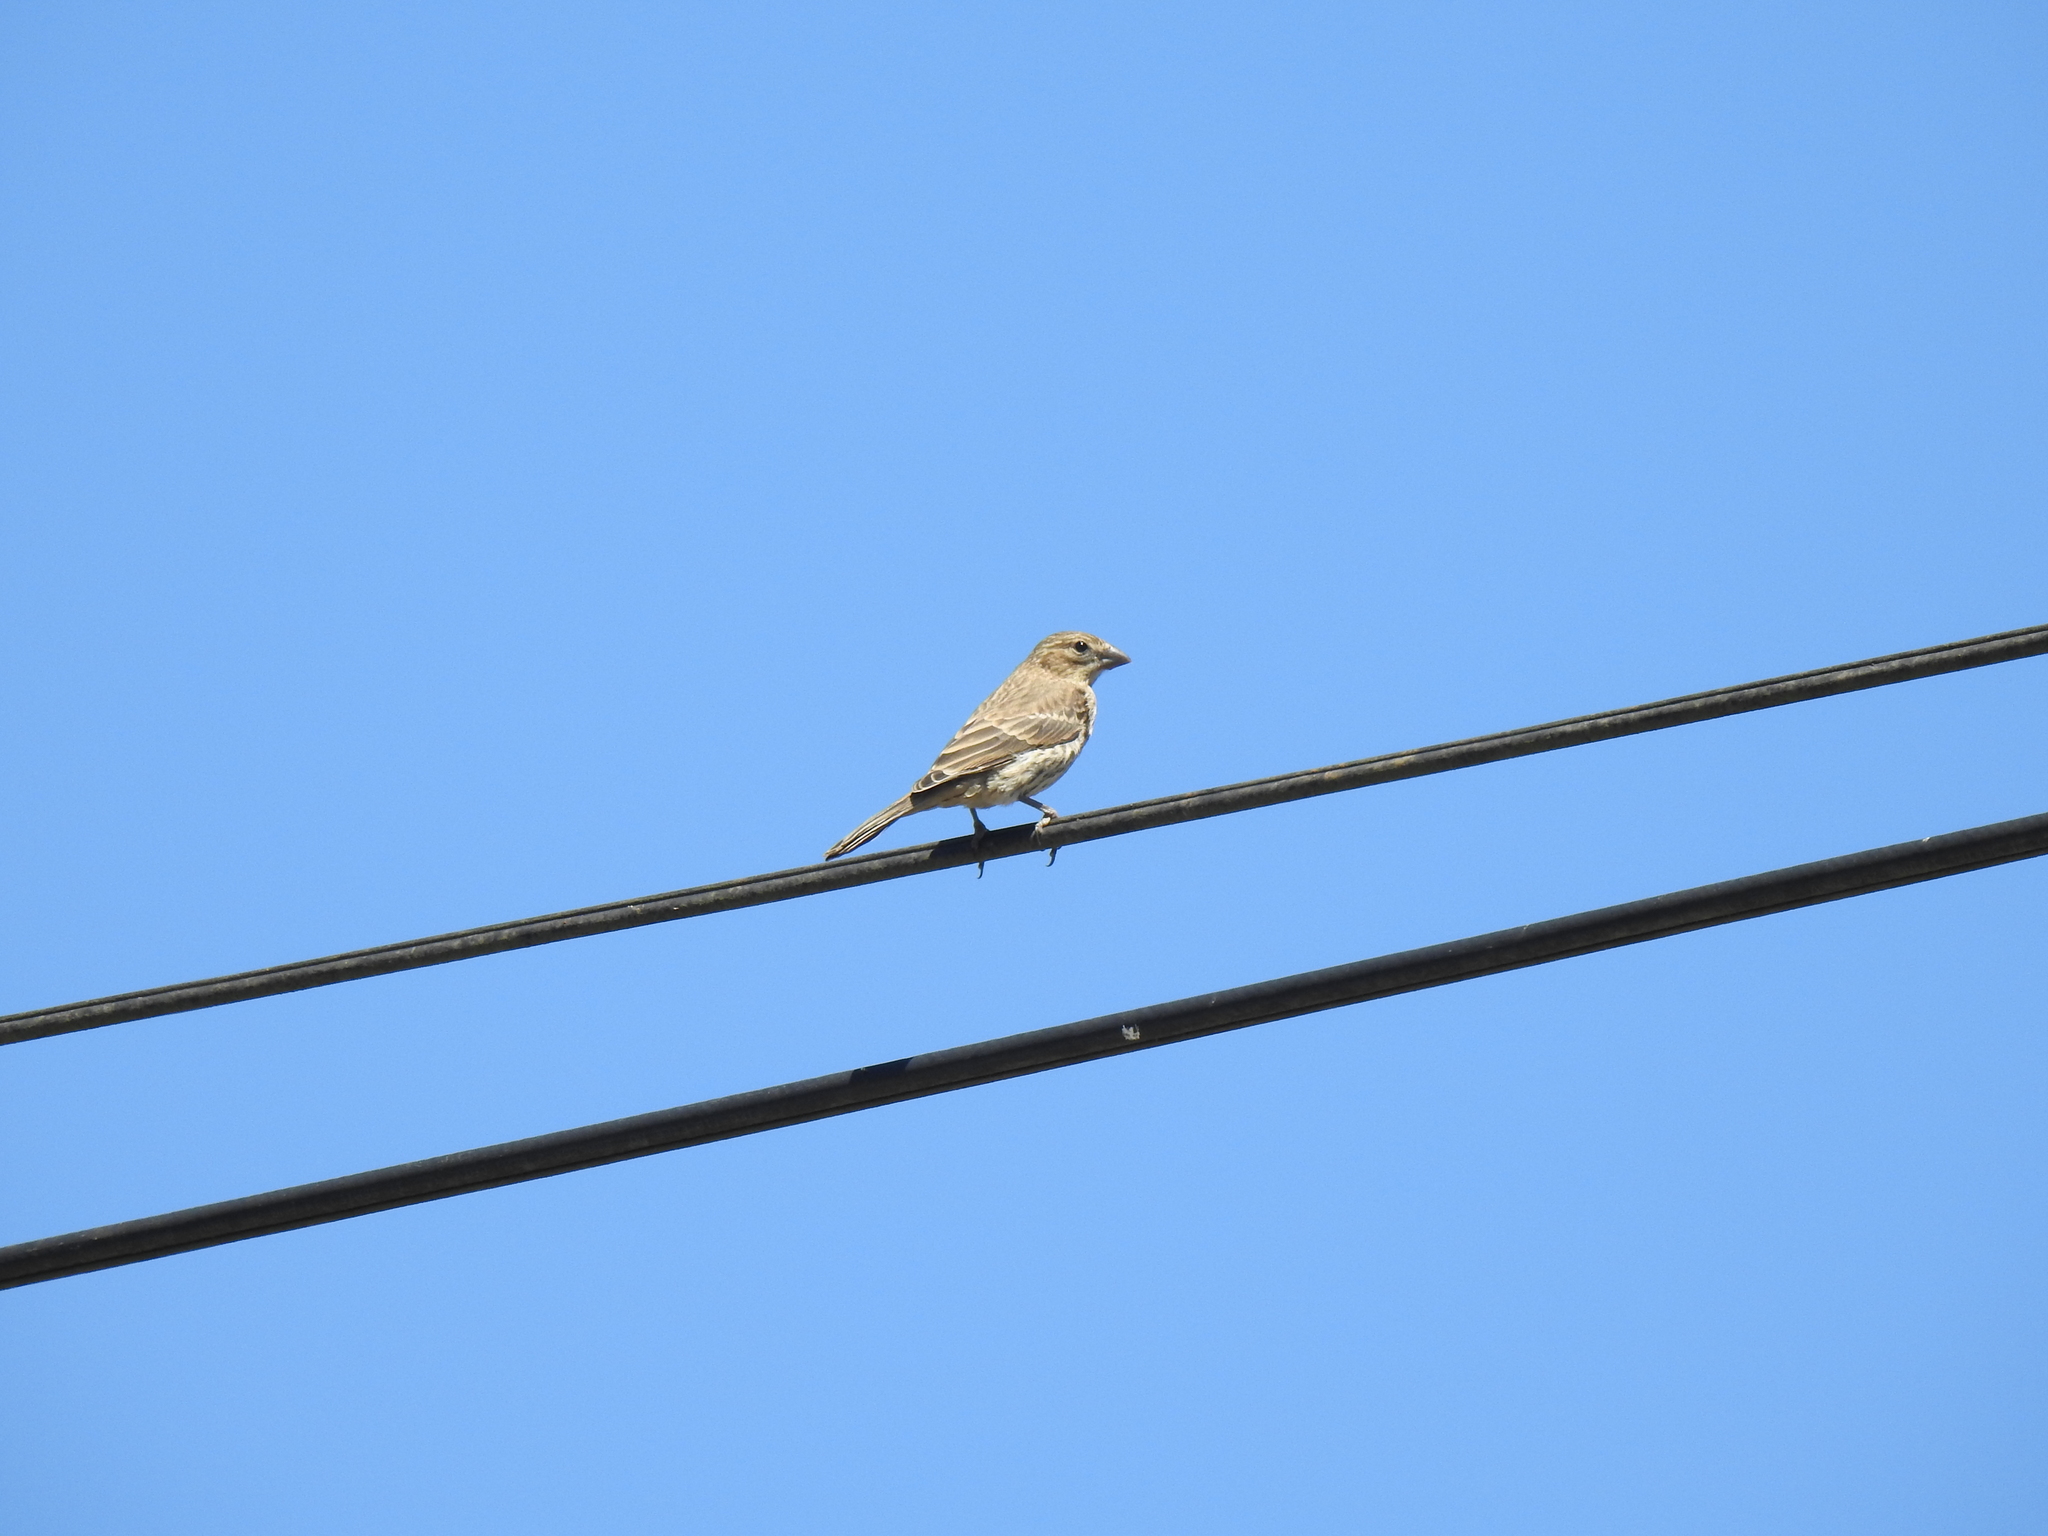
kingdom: Animalia
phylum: Chordata
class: Aves
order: Passeriformes
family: Fringillidae
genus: Haemorhous
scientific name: Haemorhous mexicanus
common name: House finch
